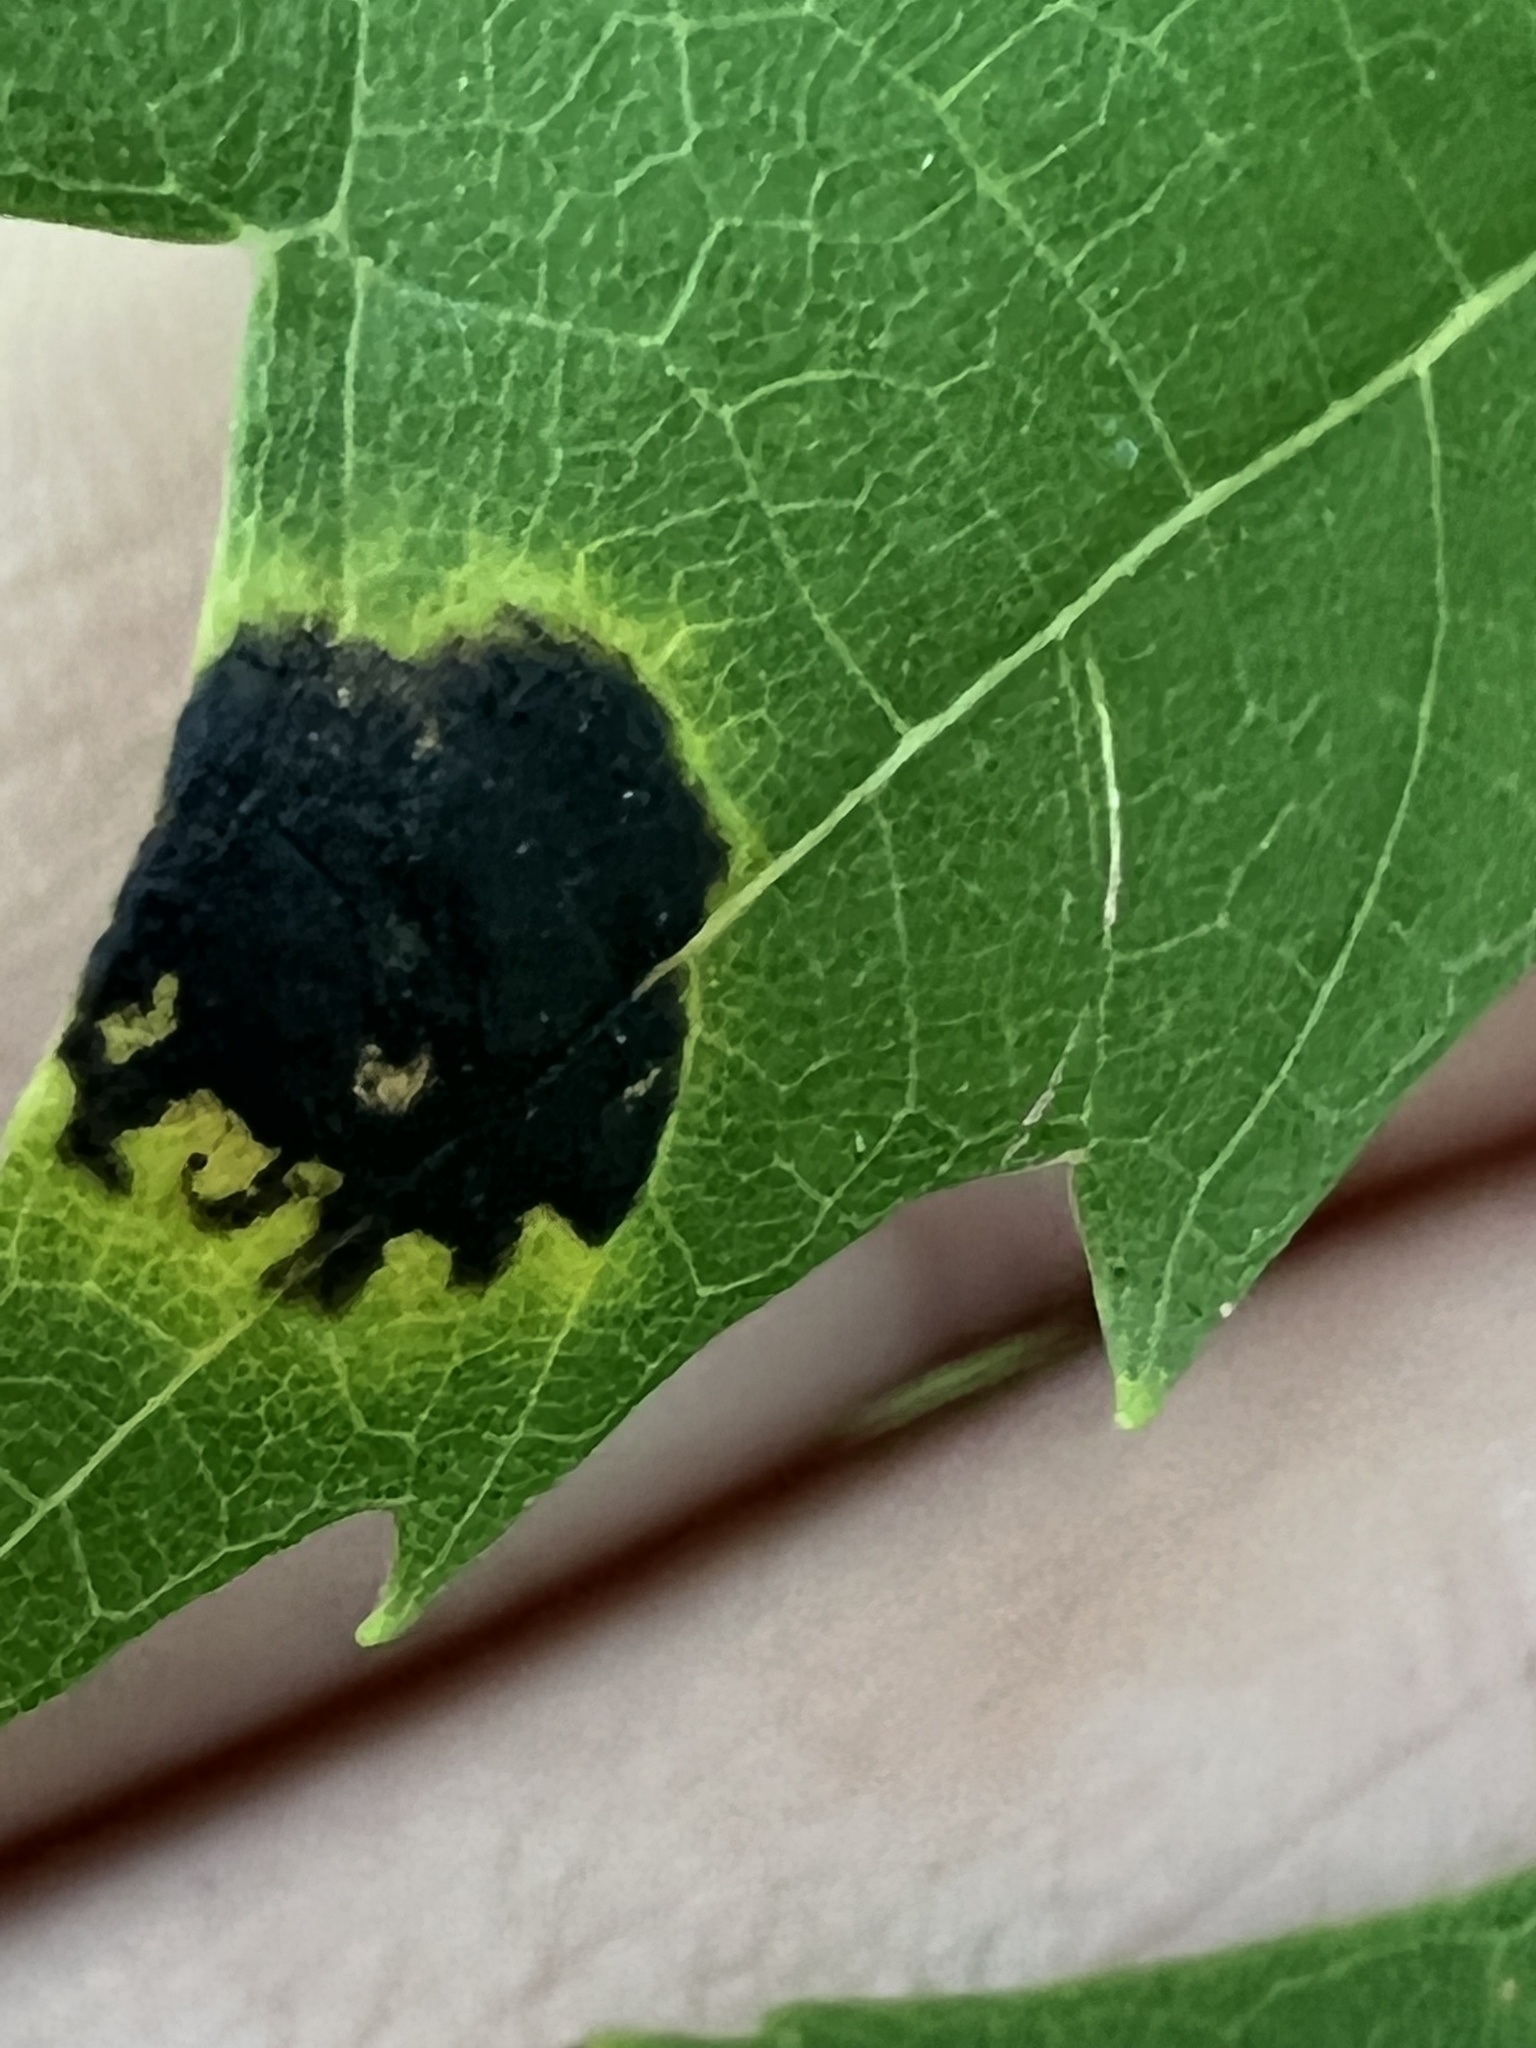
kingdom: Fungi
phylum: Ascomycota
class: Leotiomycetes
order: Rhytismatales
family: Rhytismataceae
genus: Rhytisma
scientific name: Rhytisma americanum
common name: American tar spot
